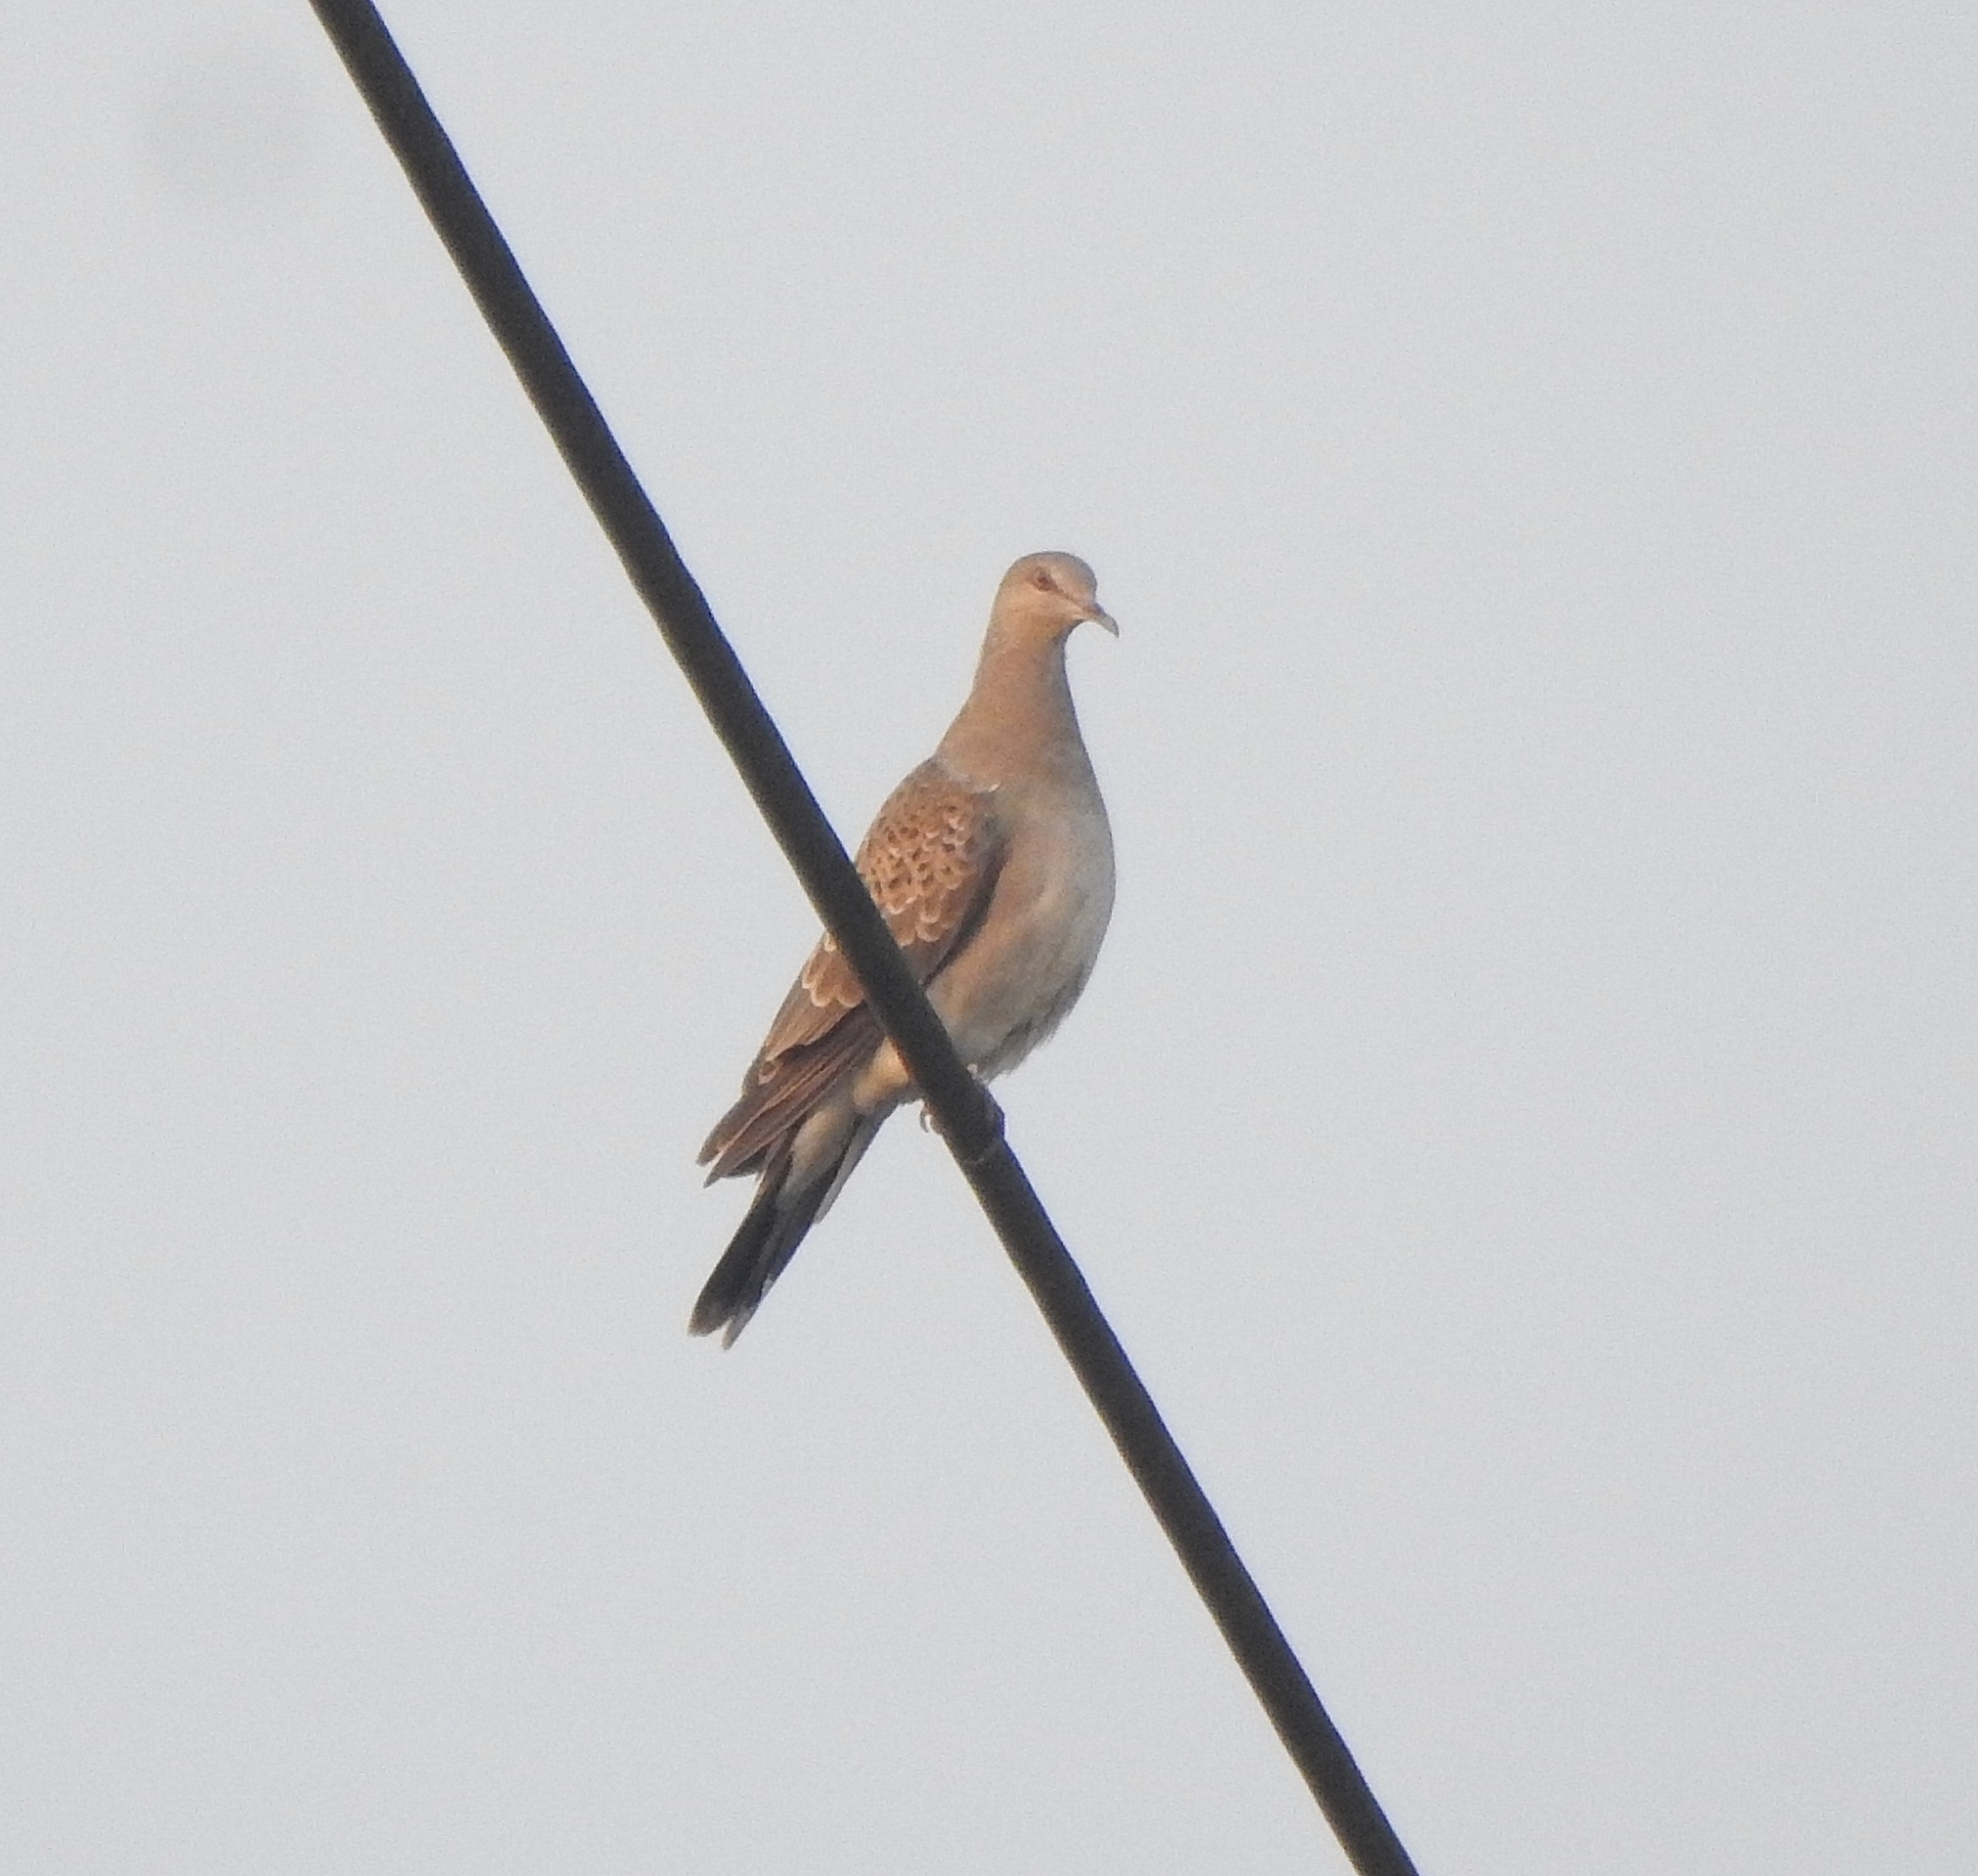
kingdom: Animalia
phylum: Chordata
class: Aves
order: Columbiformes
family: Columbidae
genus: Streptopelia
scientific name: Streptopelia orientalis
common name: Oriental turtle dove
